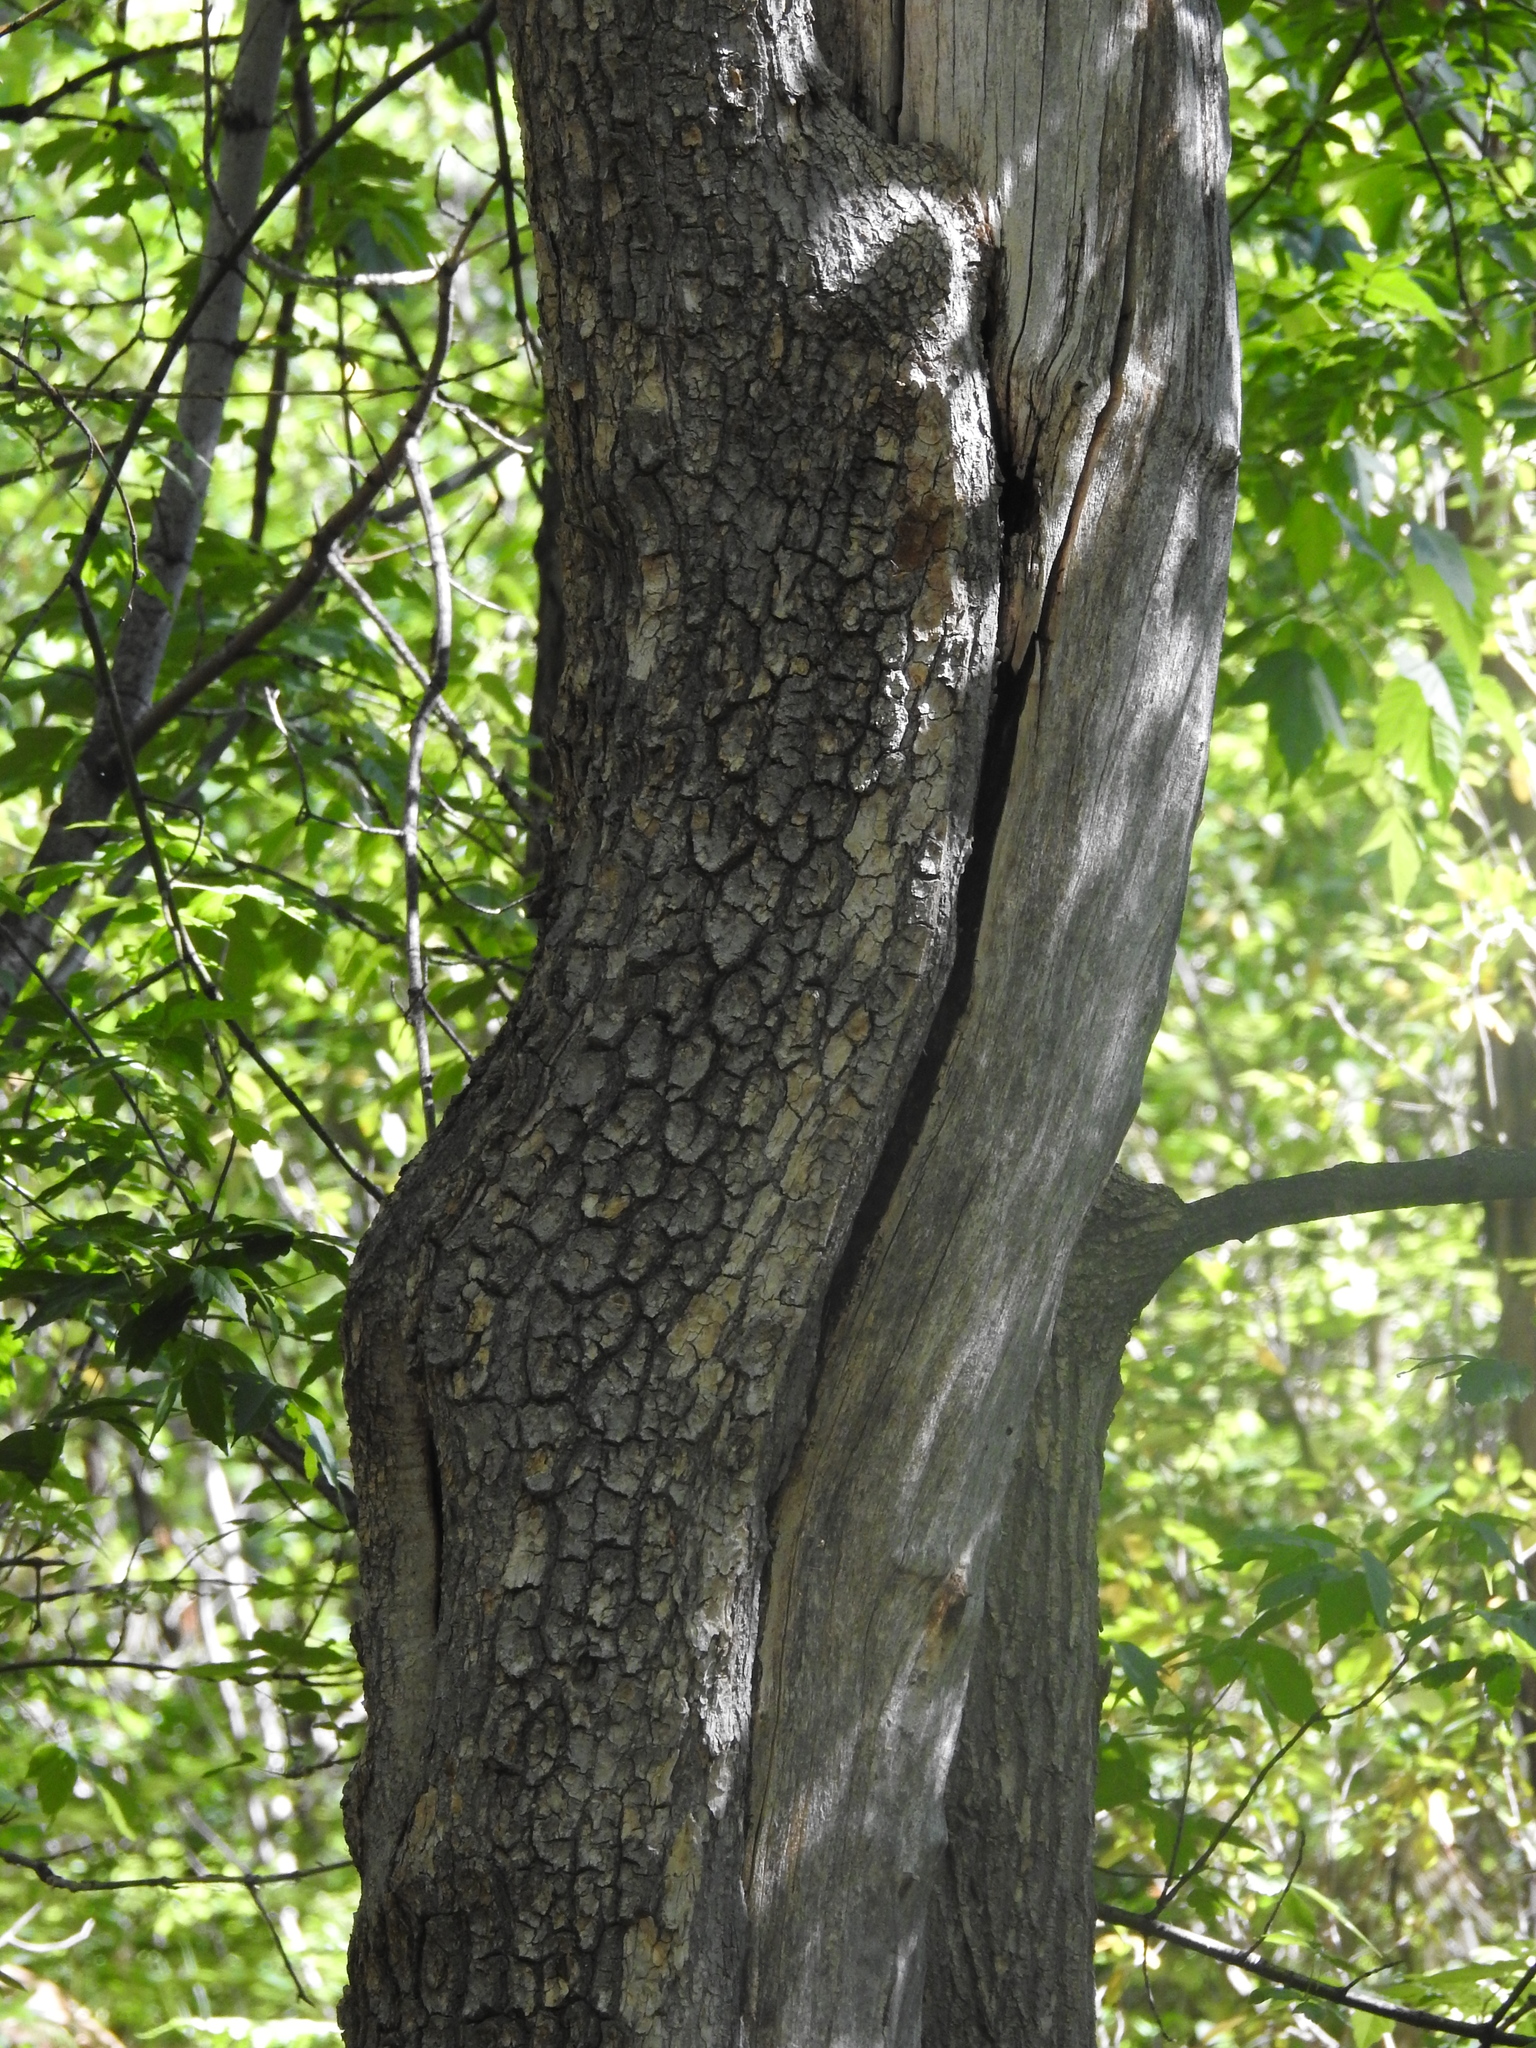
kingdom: Plantae
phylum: Tracheophyta
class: Magnoliopsida
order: Sapindales
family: Sapindaceae
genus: Acer
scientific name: Acer negundo
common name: Ashleaf maple
